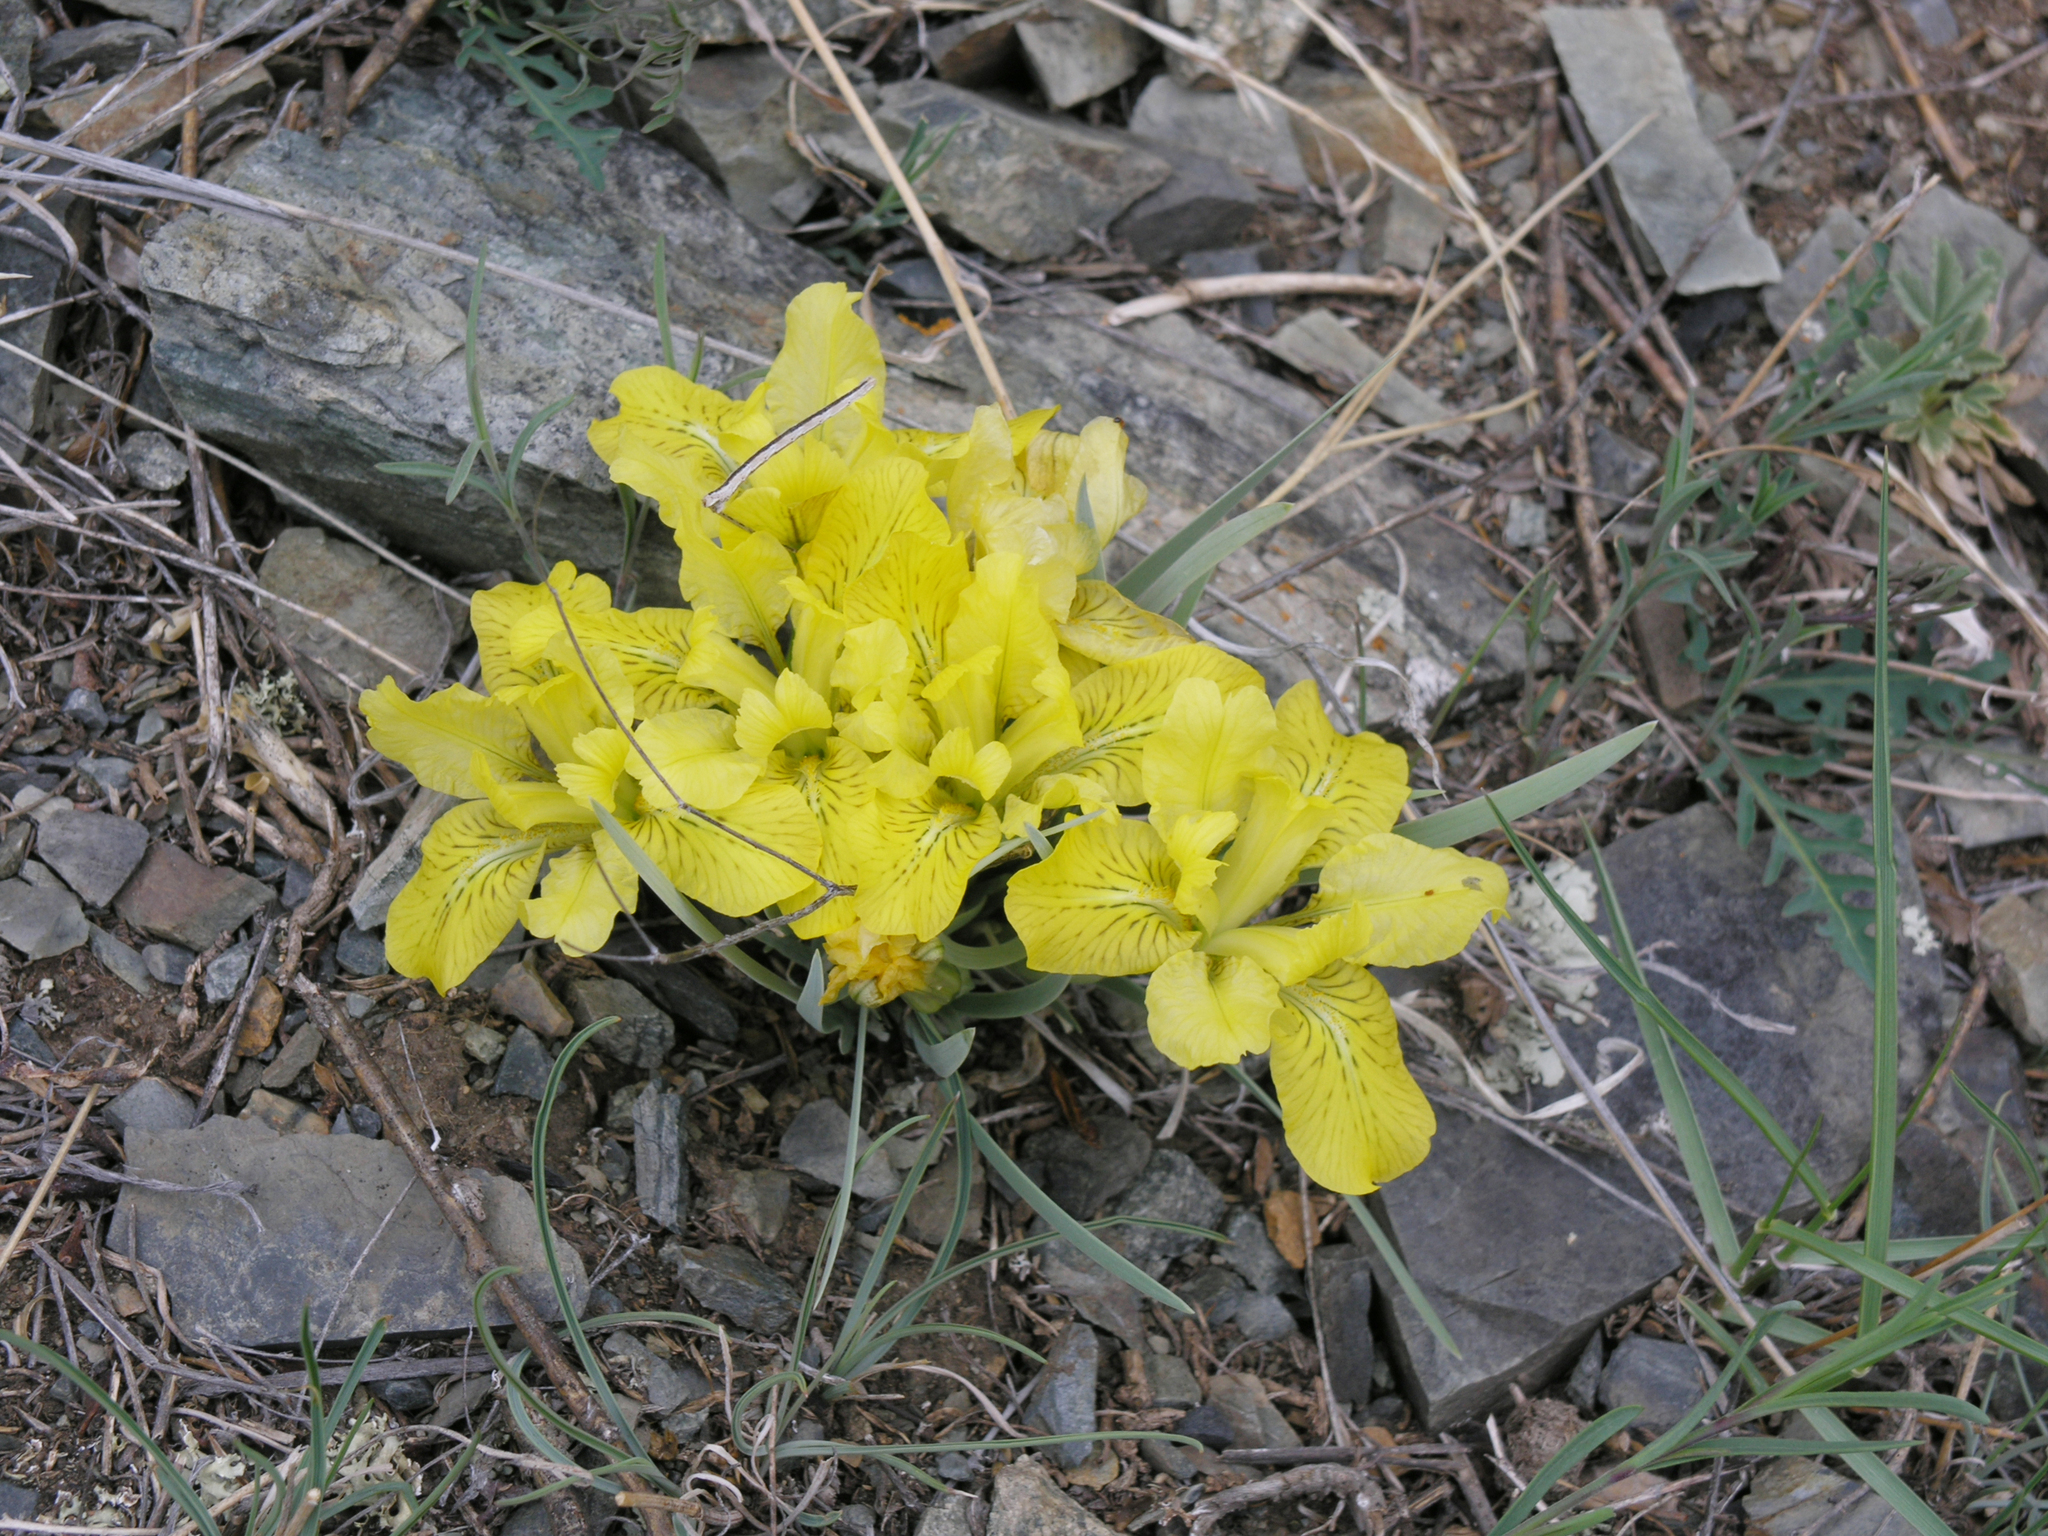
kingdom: Plantae
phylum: Tracheophyta
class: Liliopsida
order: Asparagales
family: Iridaceae
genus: Iris
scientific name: Iris potaninii
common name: Curl-sheath iris
